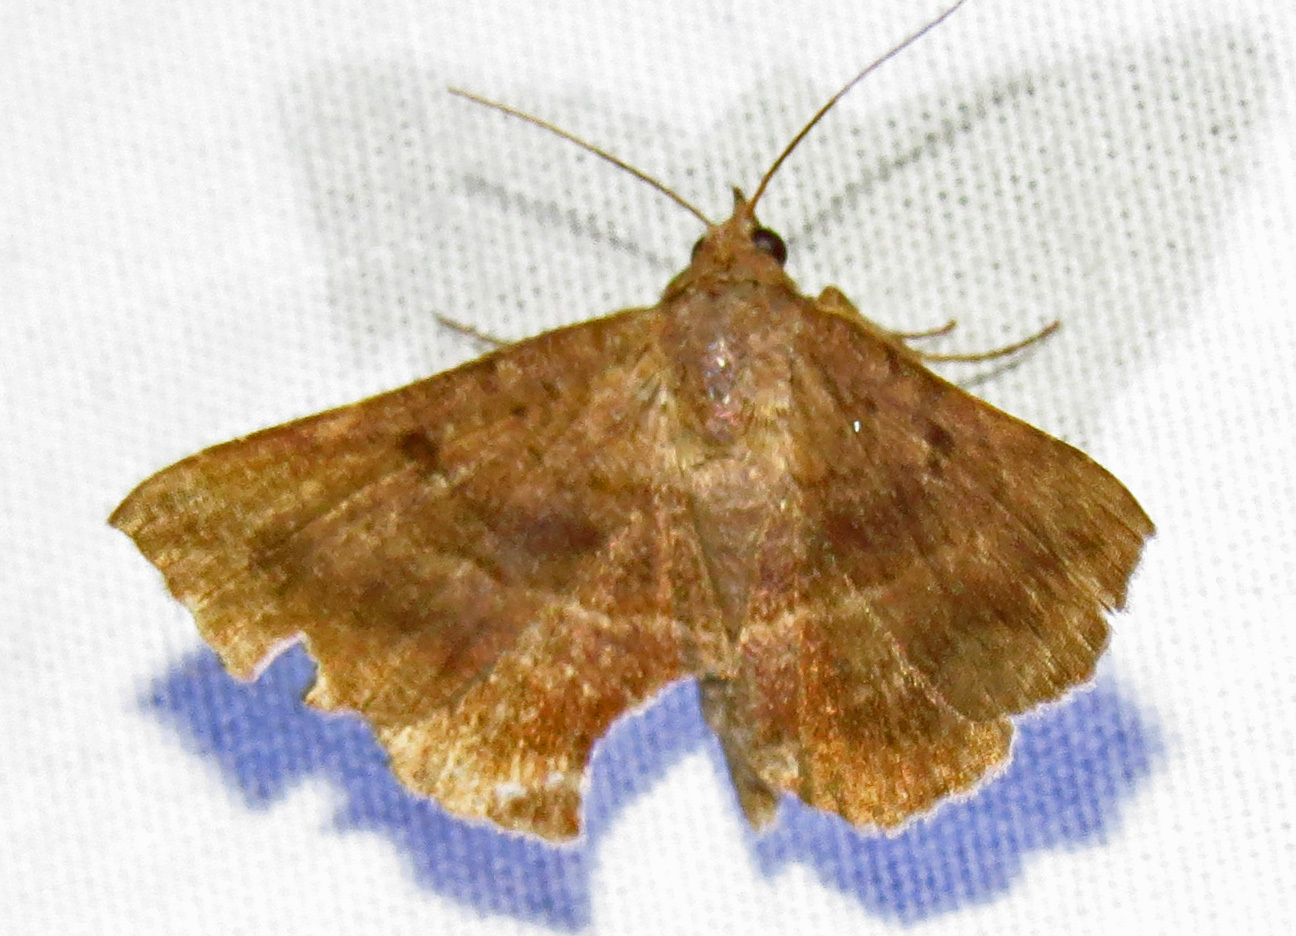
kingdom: Animalia
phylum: Arthropoda
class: Insecta
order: Lepidoptera
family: Erebidae
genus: Lesmone
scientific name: Lesmone detrahens
